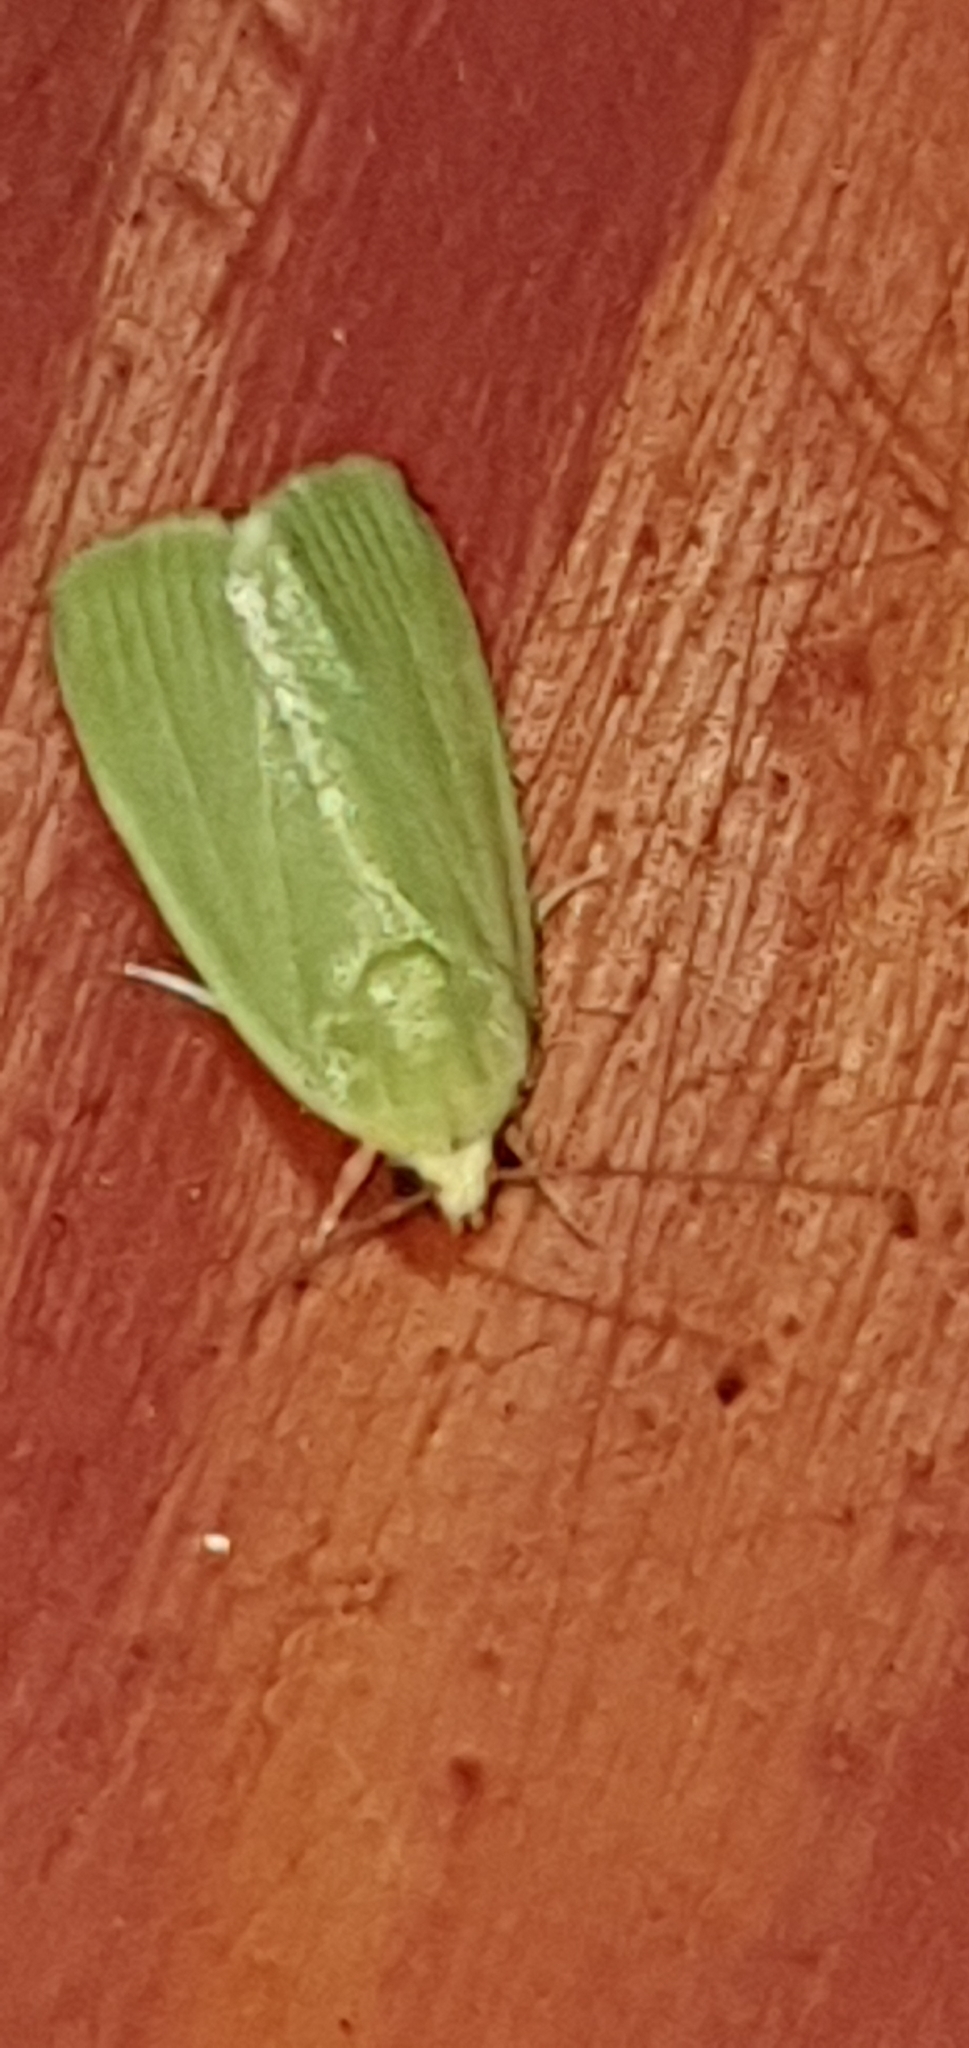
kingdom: Animalia
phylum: Arthropoda
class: Insecta
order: Lepidoptera
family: Nolidae
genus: Earias
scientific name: Earias smaragdina
